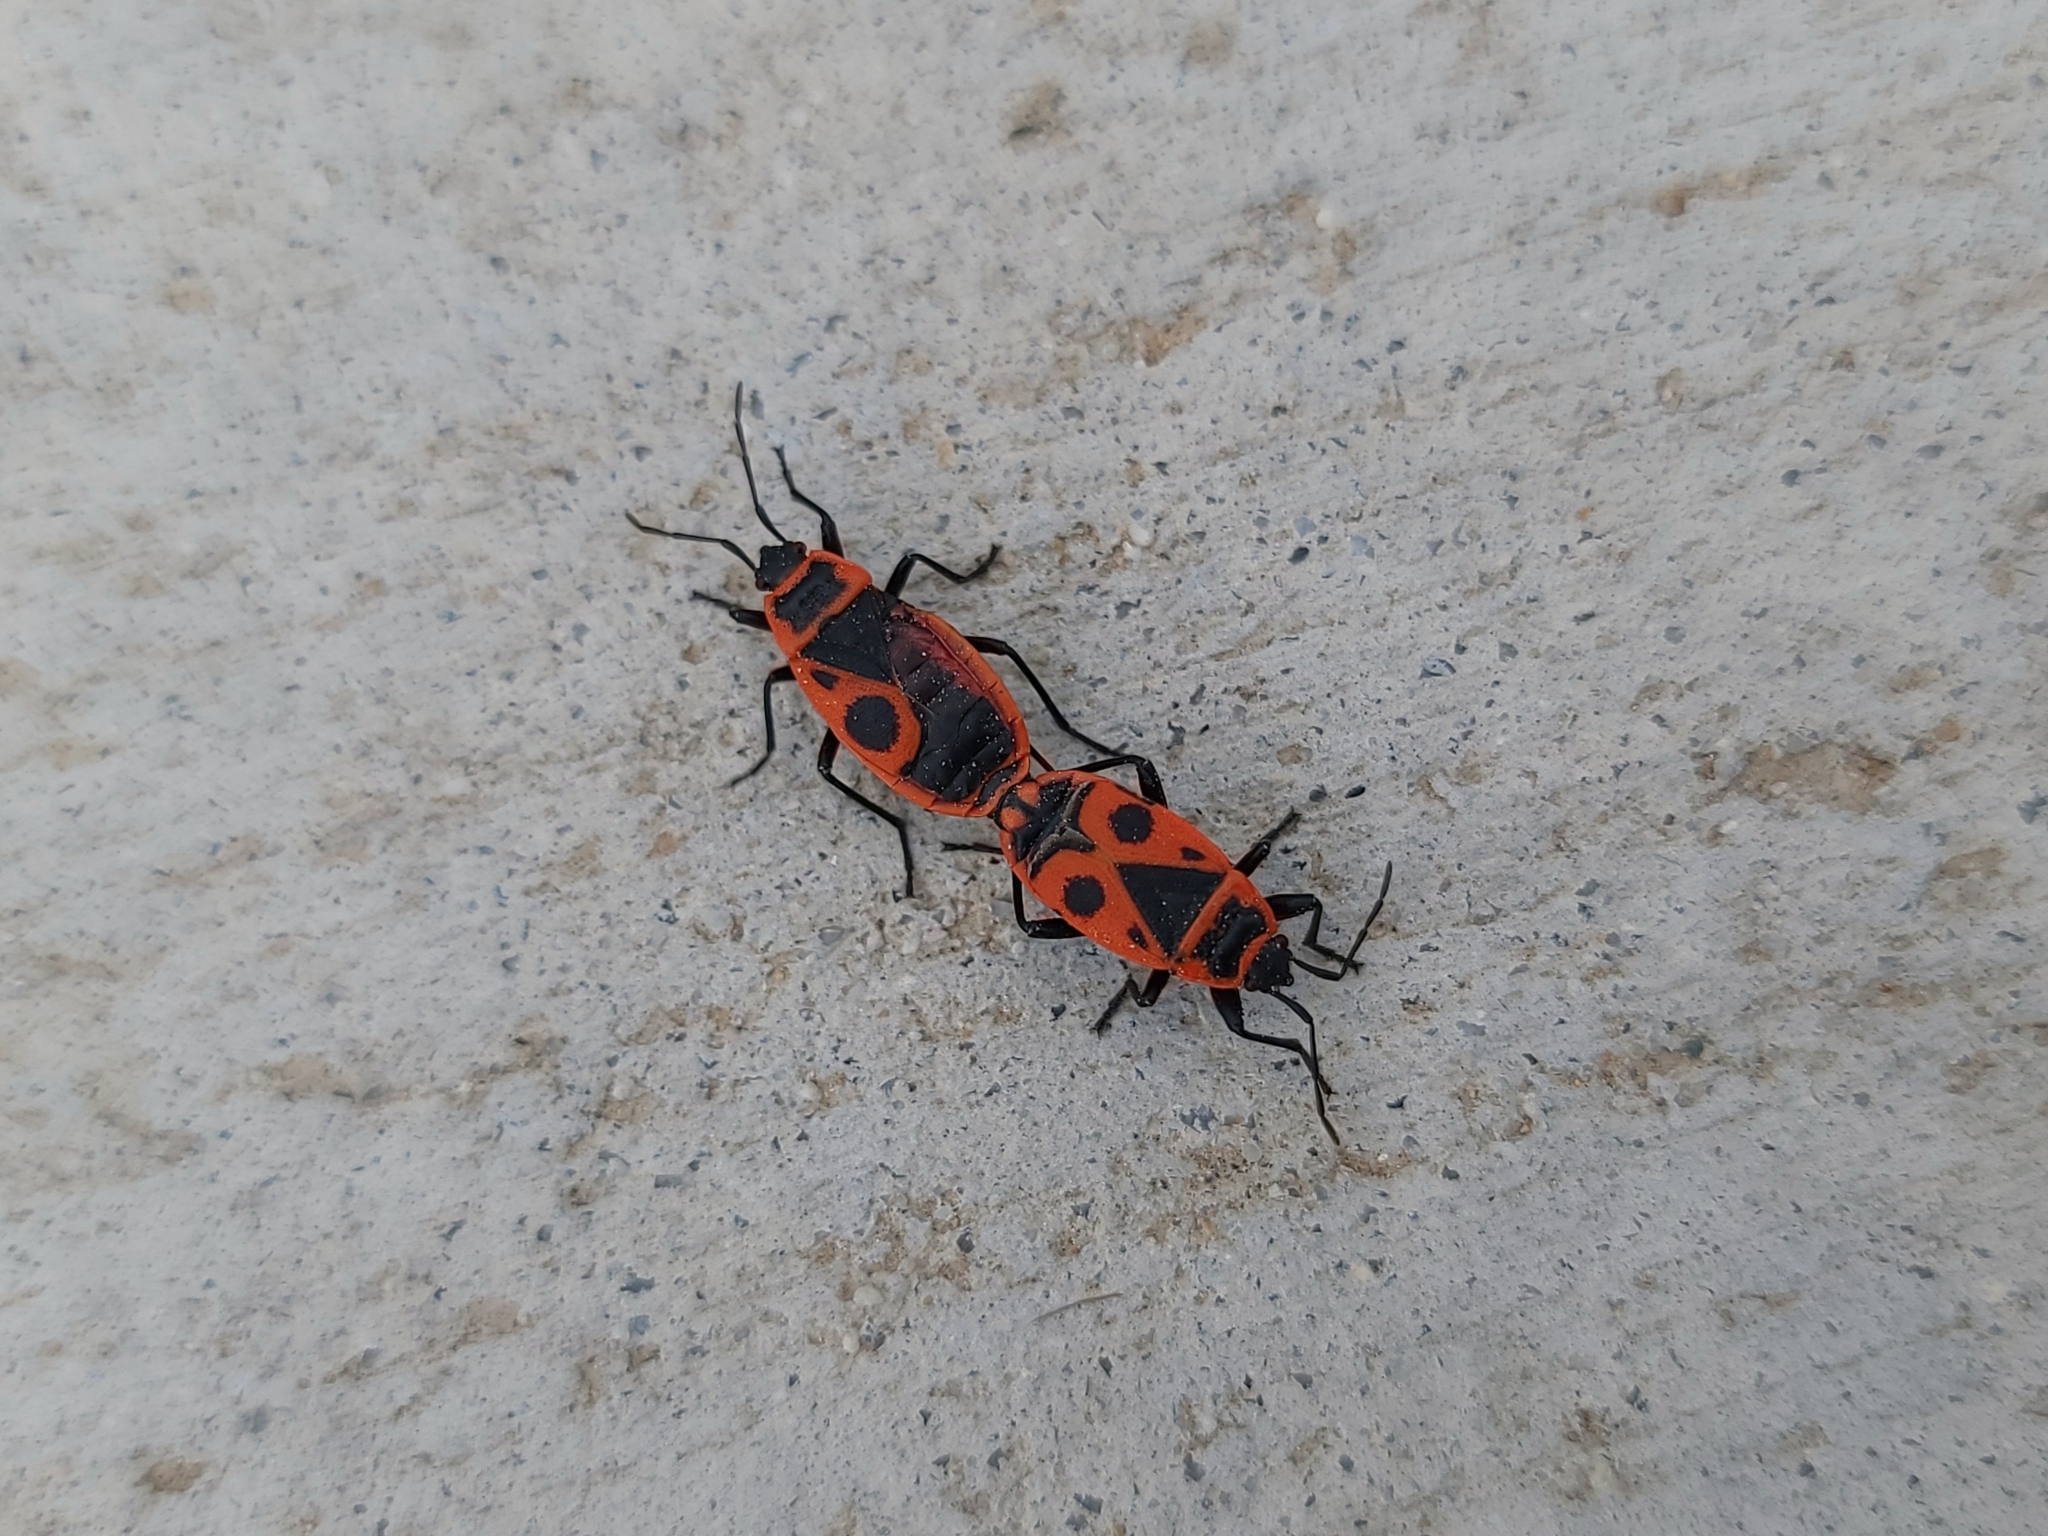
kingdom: Animalia
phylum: Arthropoda
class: Insecta
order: Hemiptera
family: Pyrrhocoridae
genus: Pyrrhocoris
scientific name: Pyrrhocoris apterus
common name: Firebug
